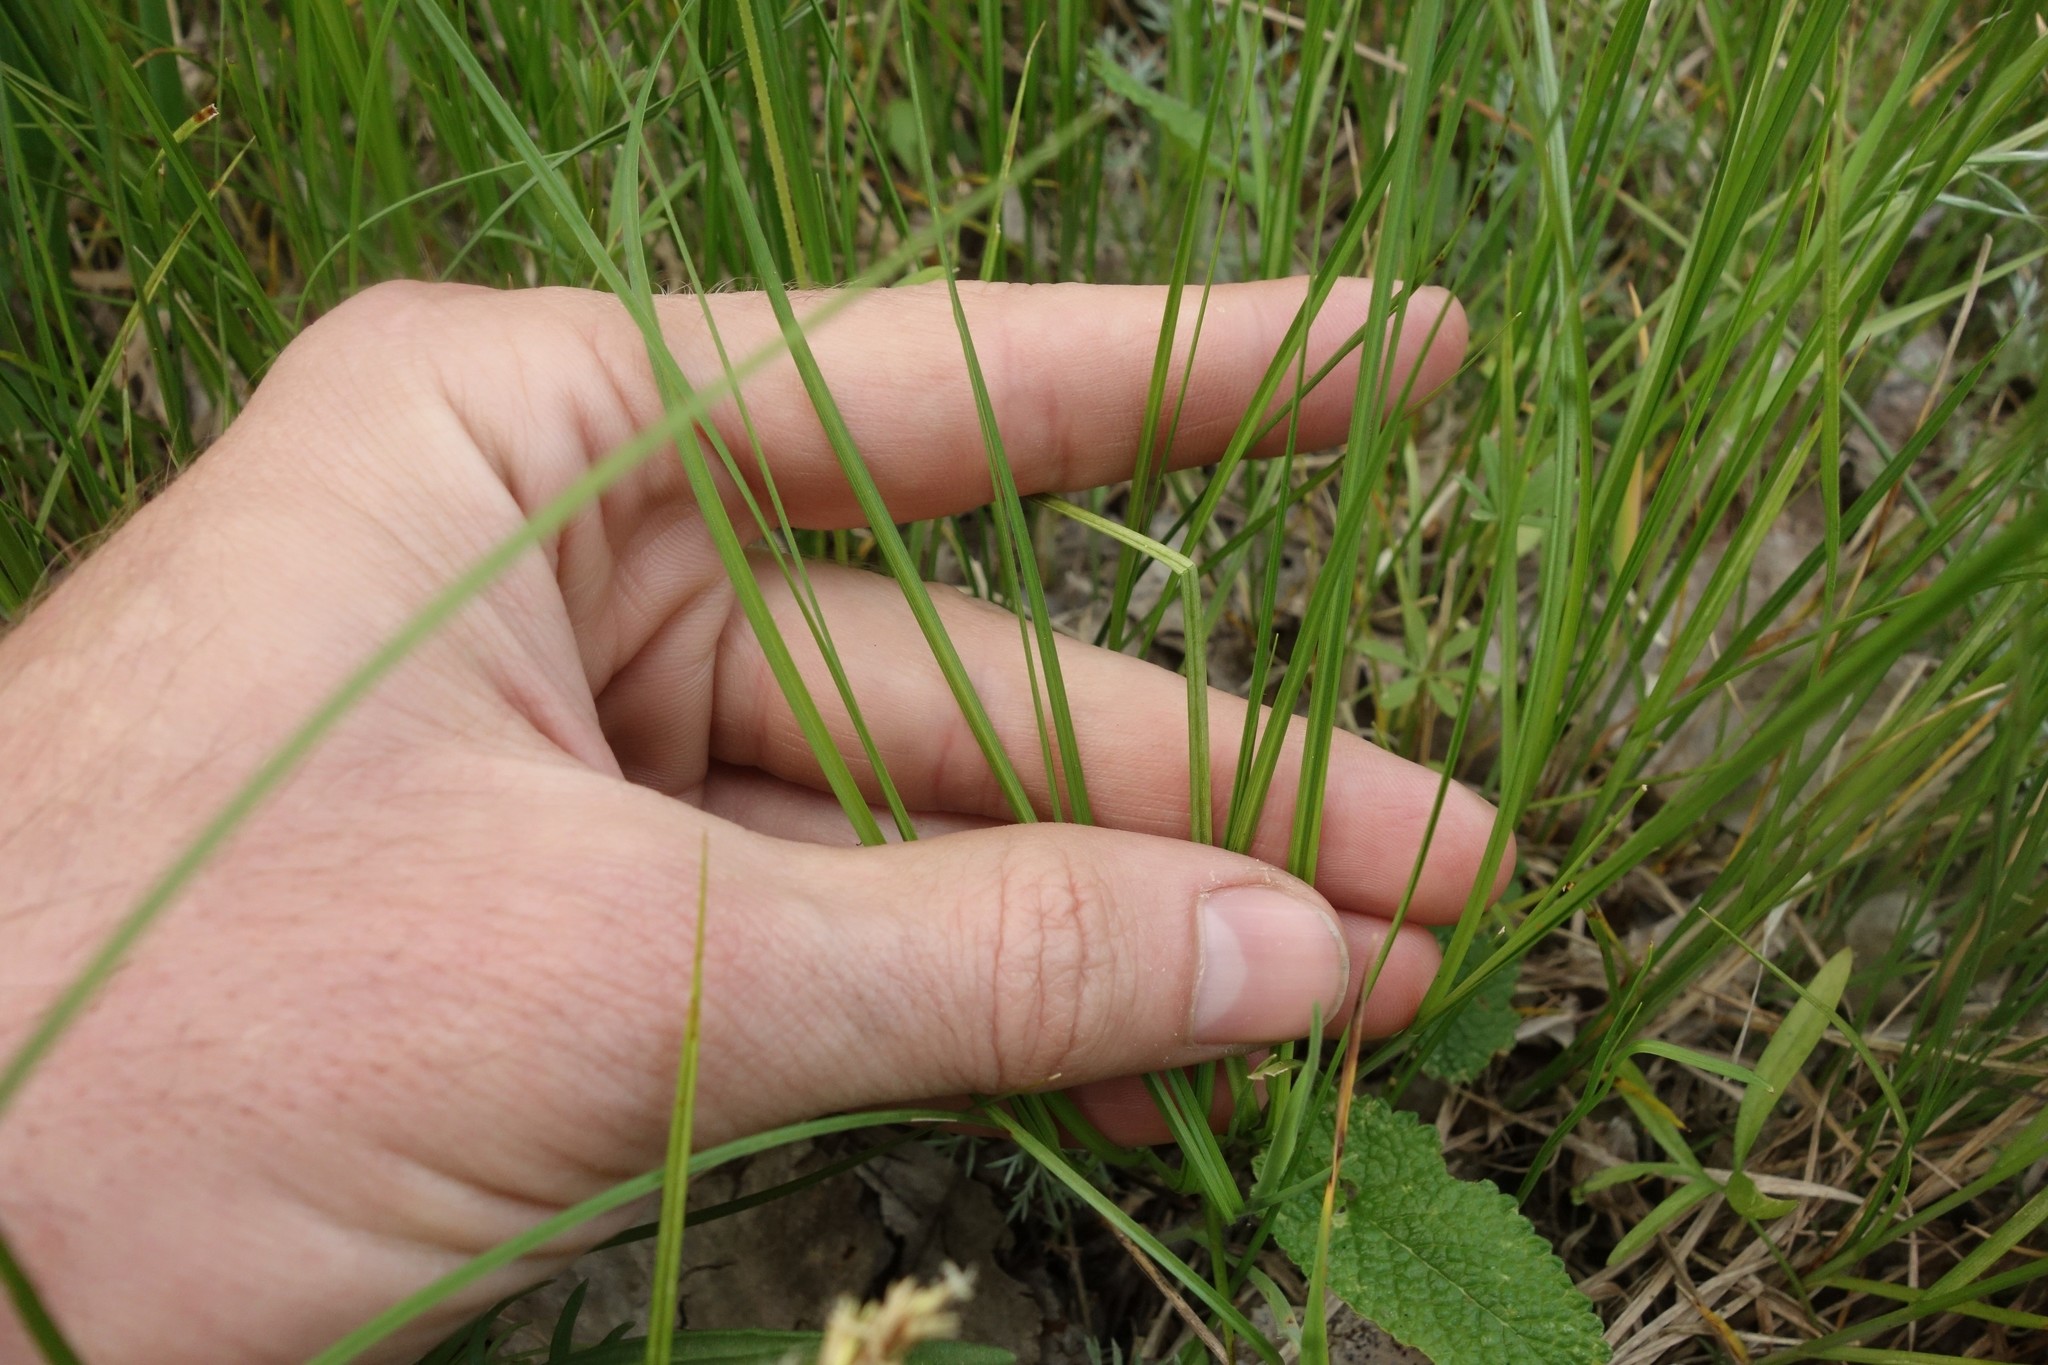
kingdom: Plantae
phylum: Tracheophyta
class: Liliopsida
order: Poales
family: Cyperaceae
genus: Carex
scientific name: Carex praecox
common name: Early sedge
